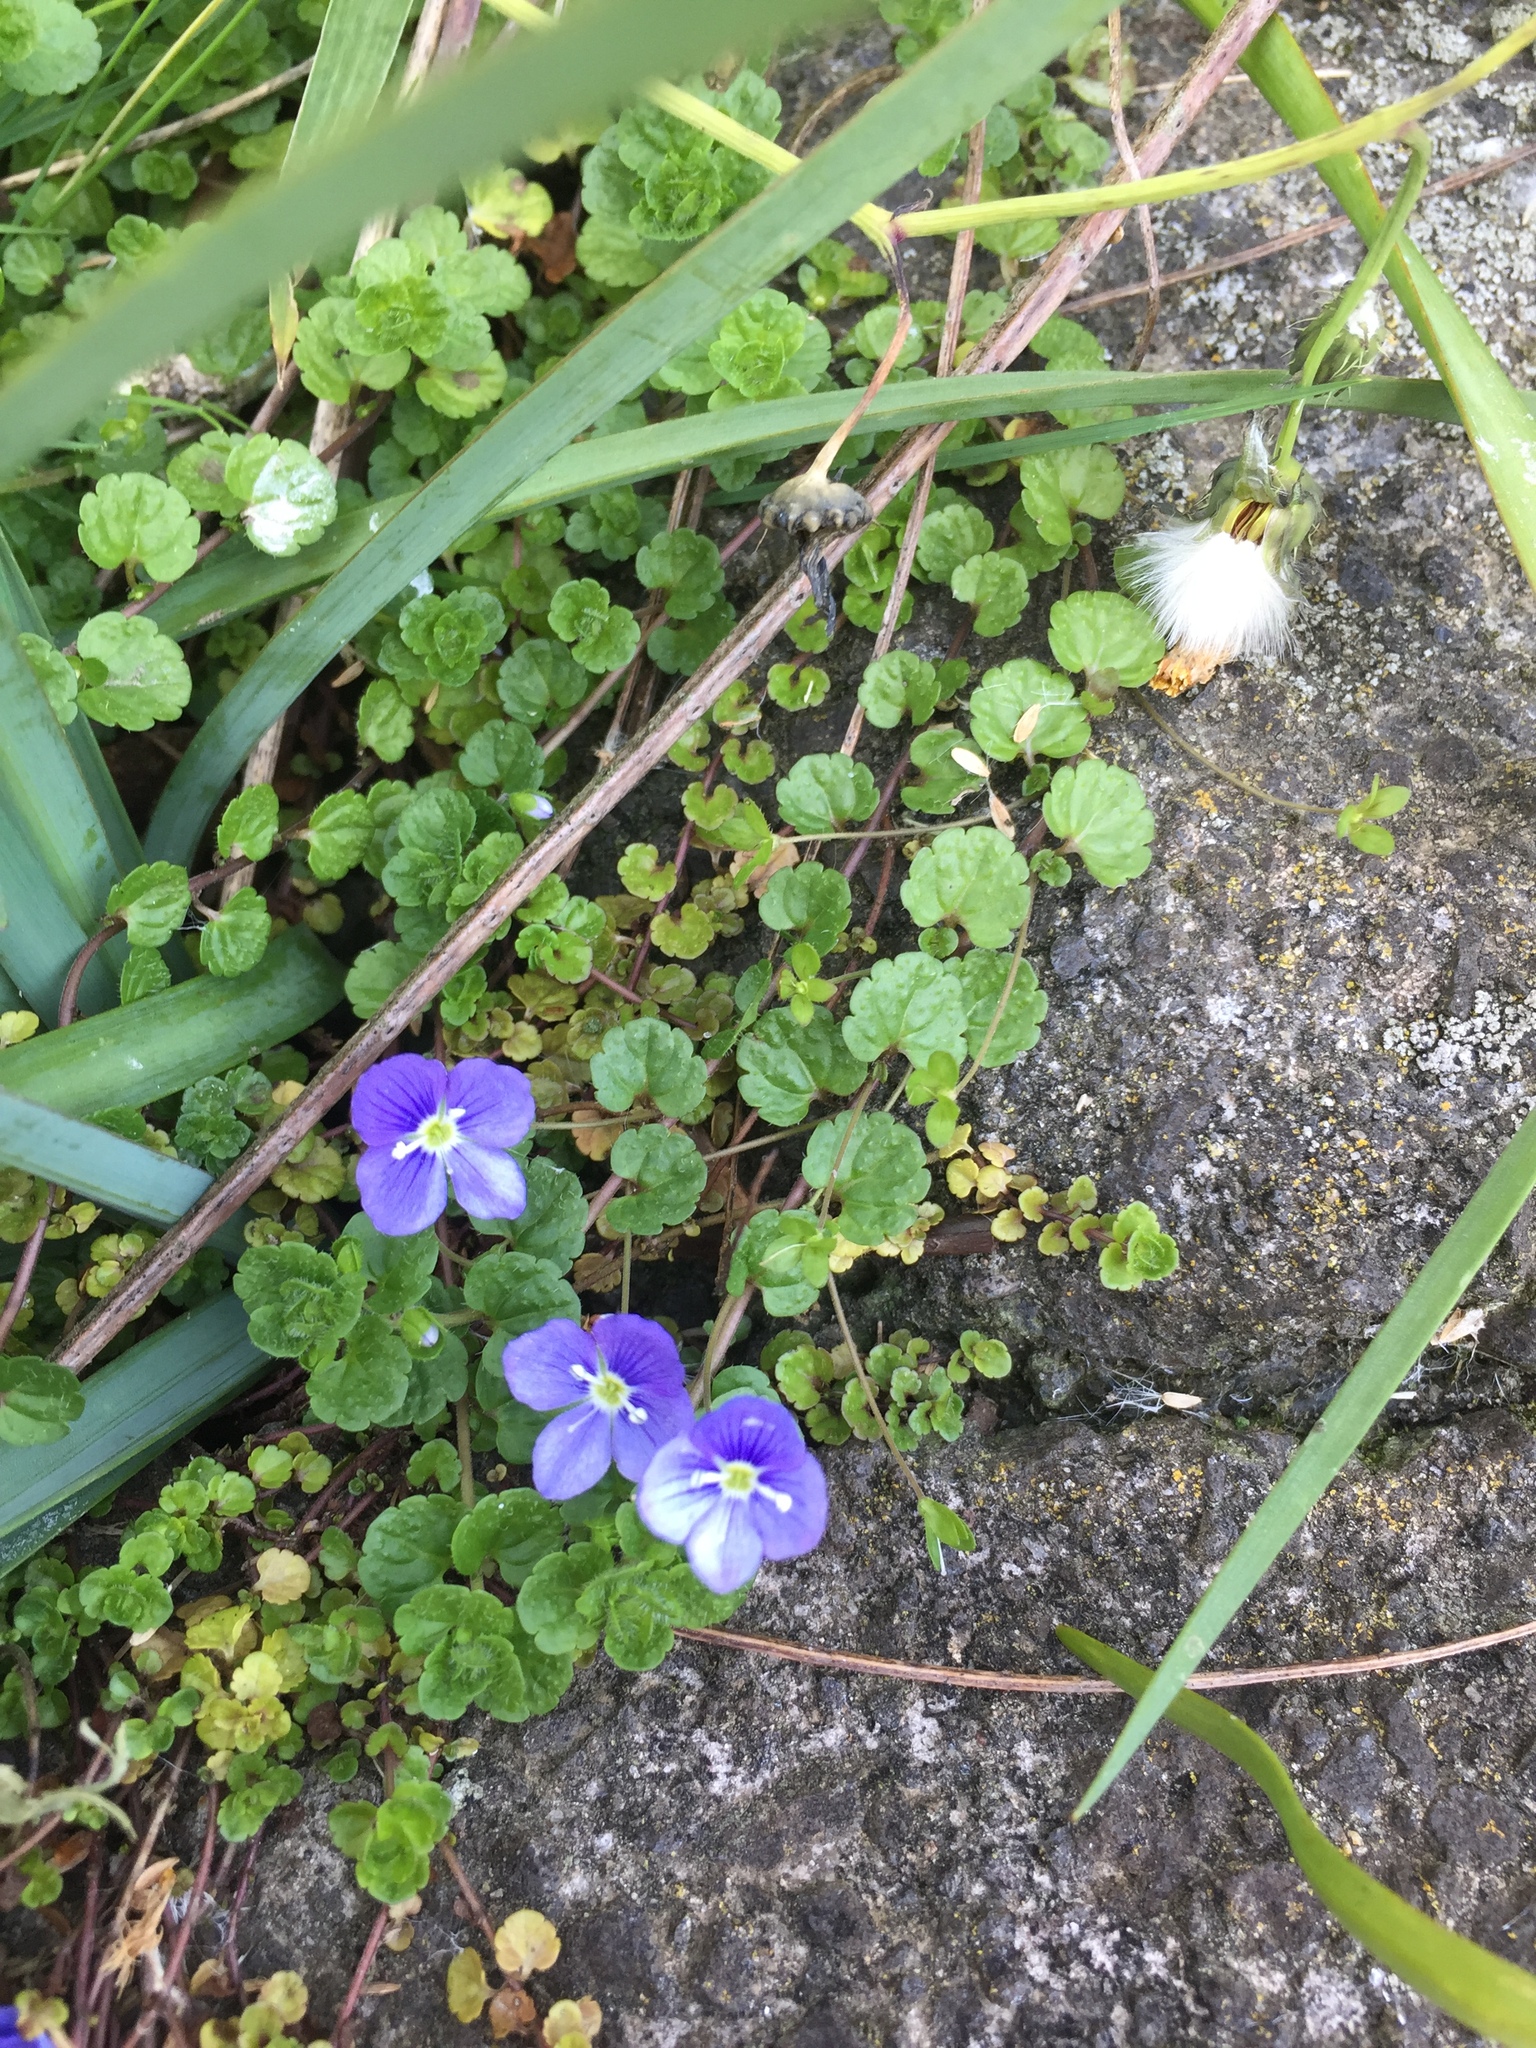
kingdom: Plantae
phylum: Tracheophyta
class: Magnoliopsida
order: Lamiales
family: Plantaginaceae
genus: Veronica
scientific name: Veronica filiformis
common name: Slender speedwell
